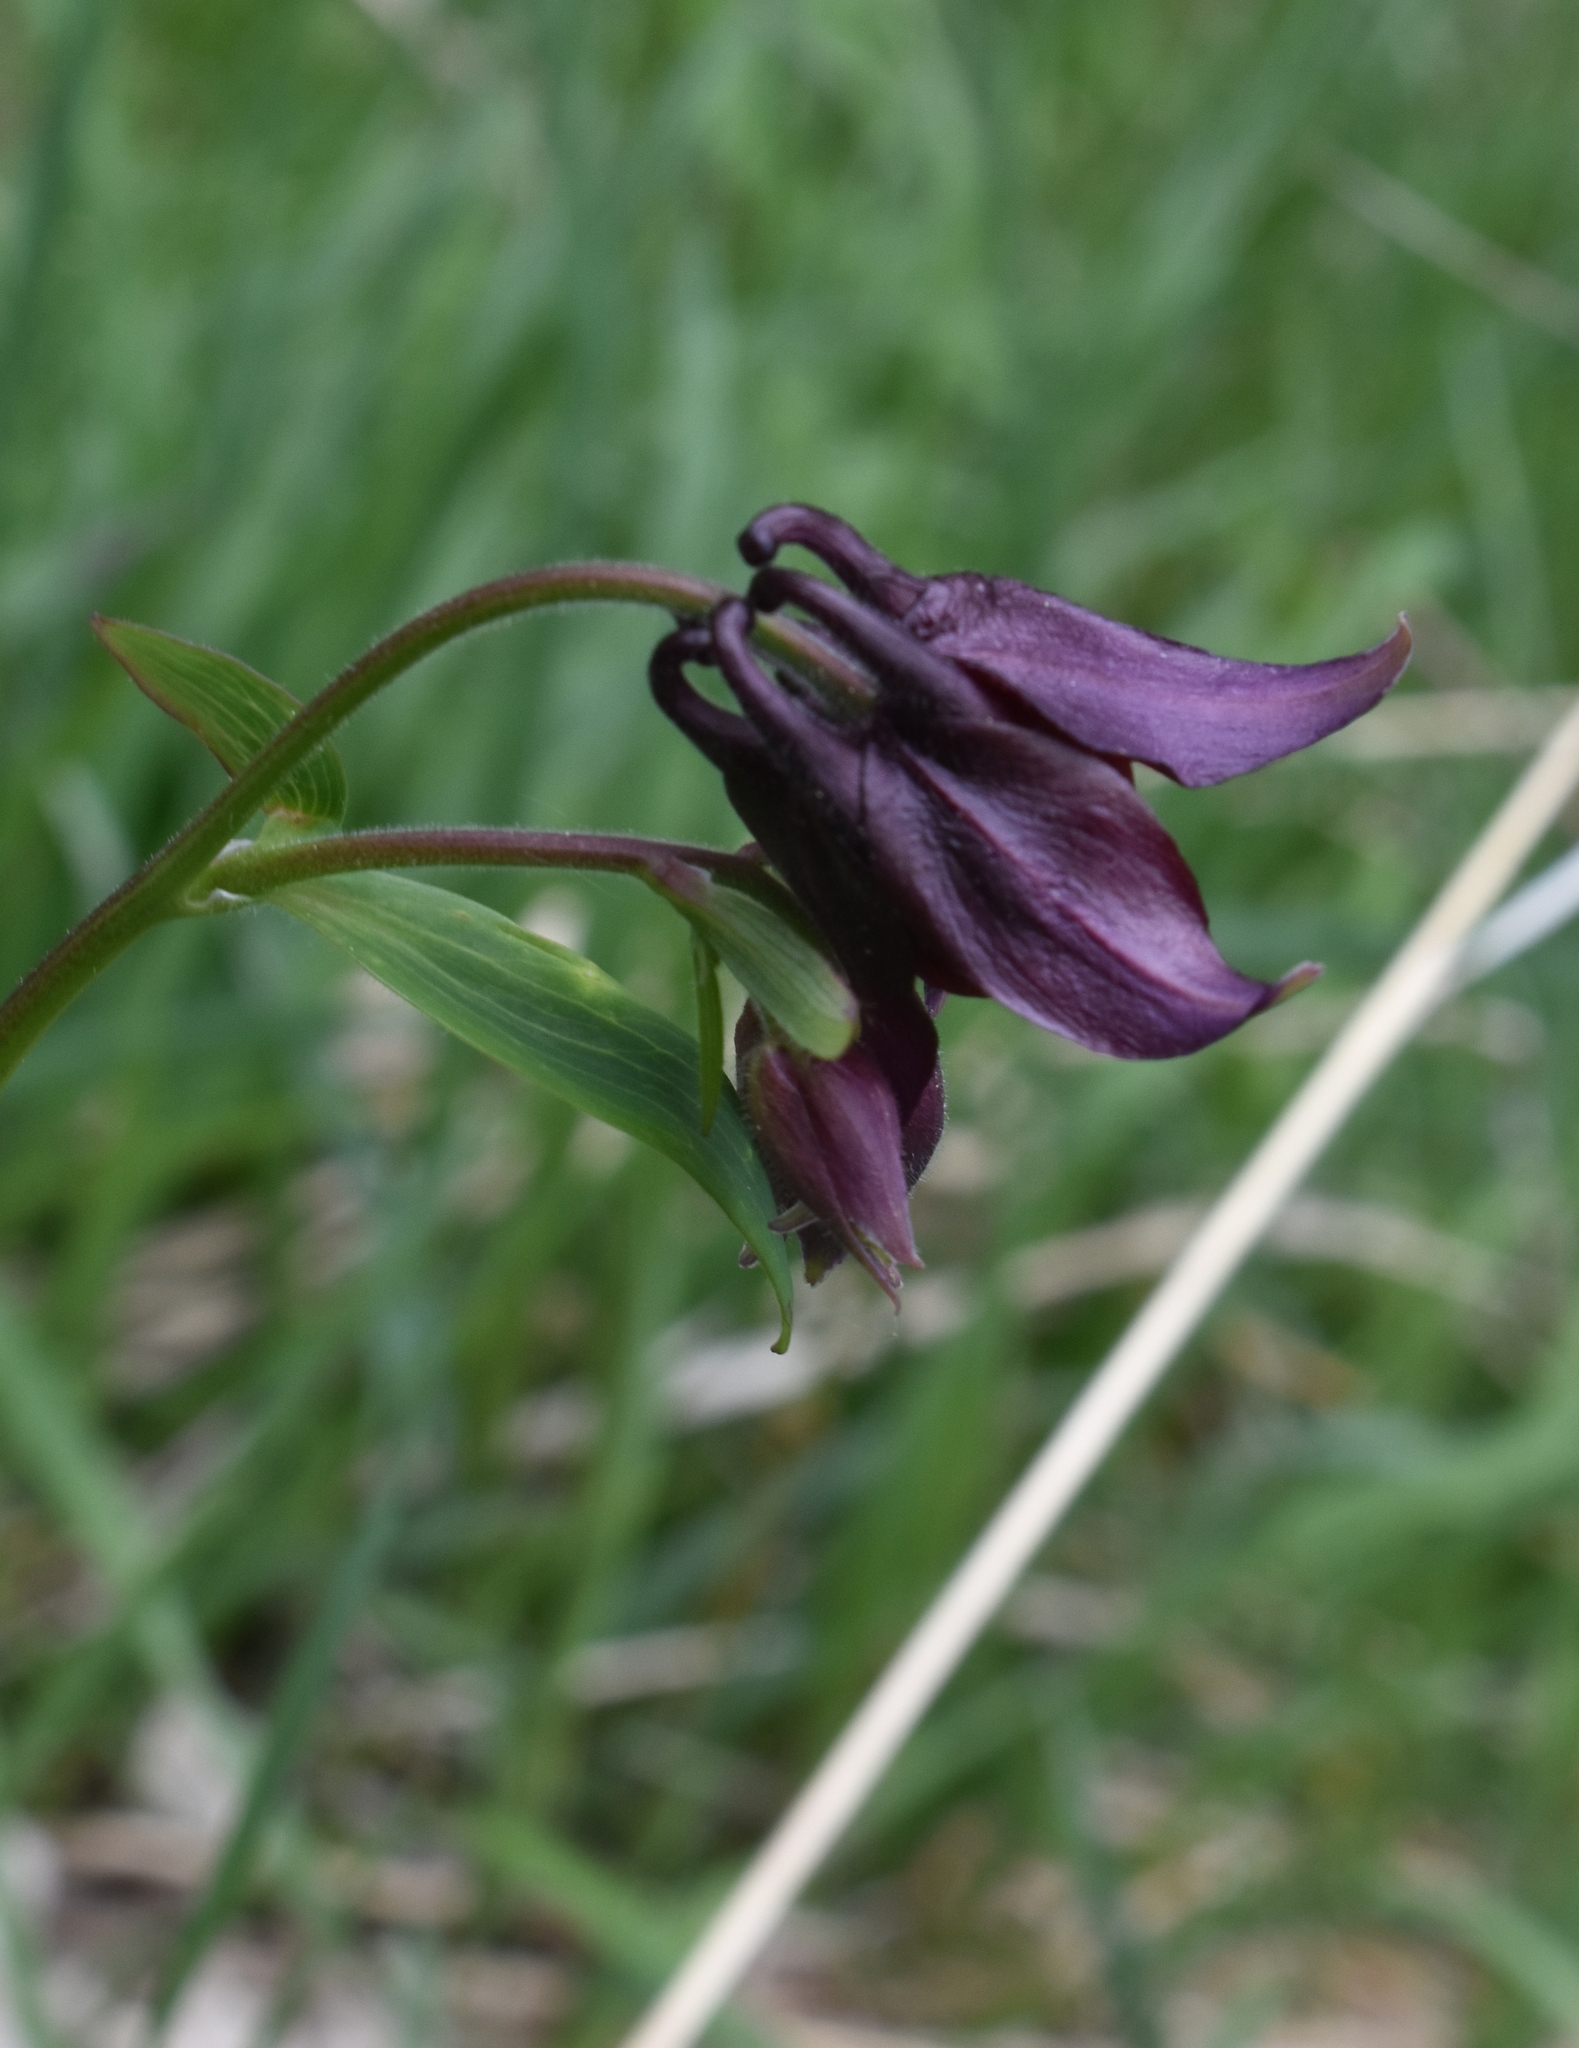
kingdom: Plantae
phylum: Tracheophyta
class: Magnoliopsida
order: Ranunculales
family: Ranunculaceae
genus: Aquilegia
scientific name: Aquilegia atrata
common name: Dark columbine
